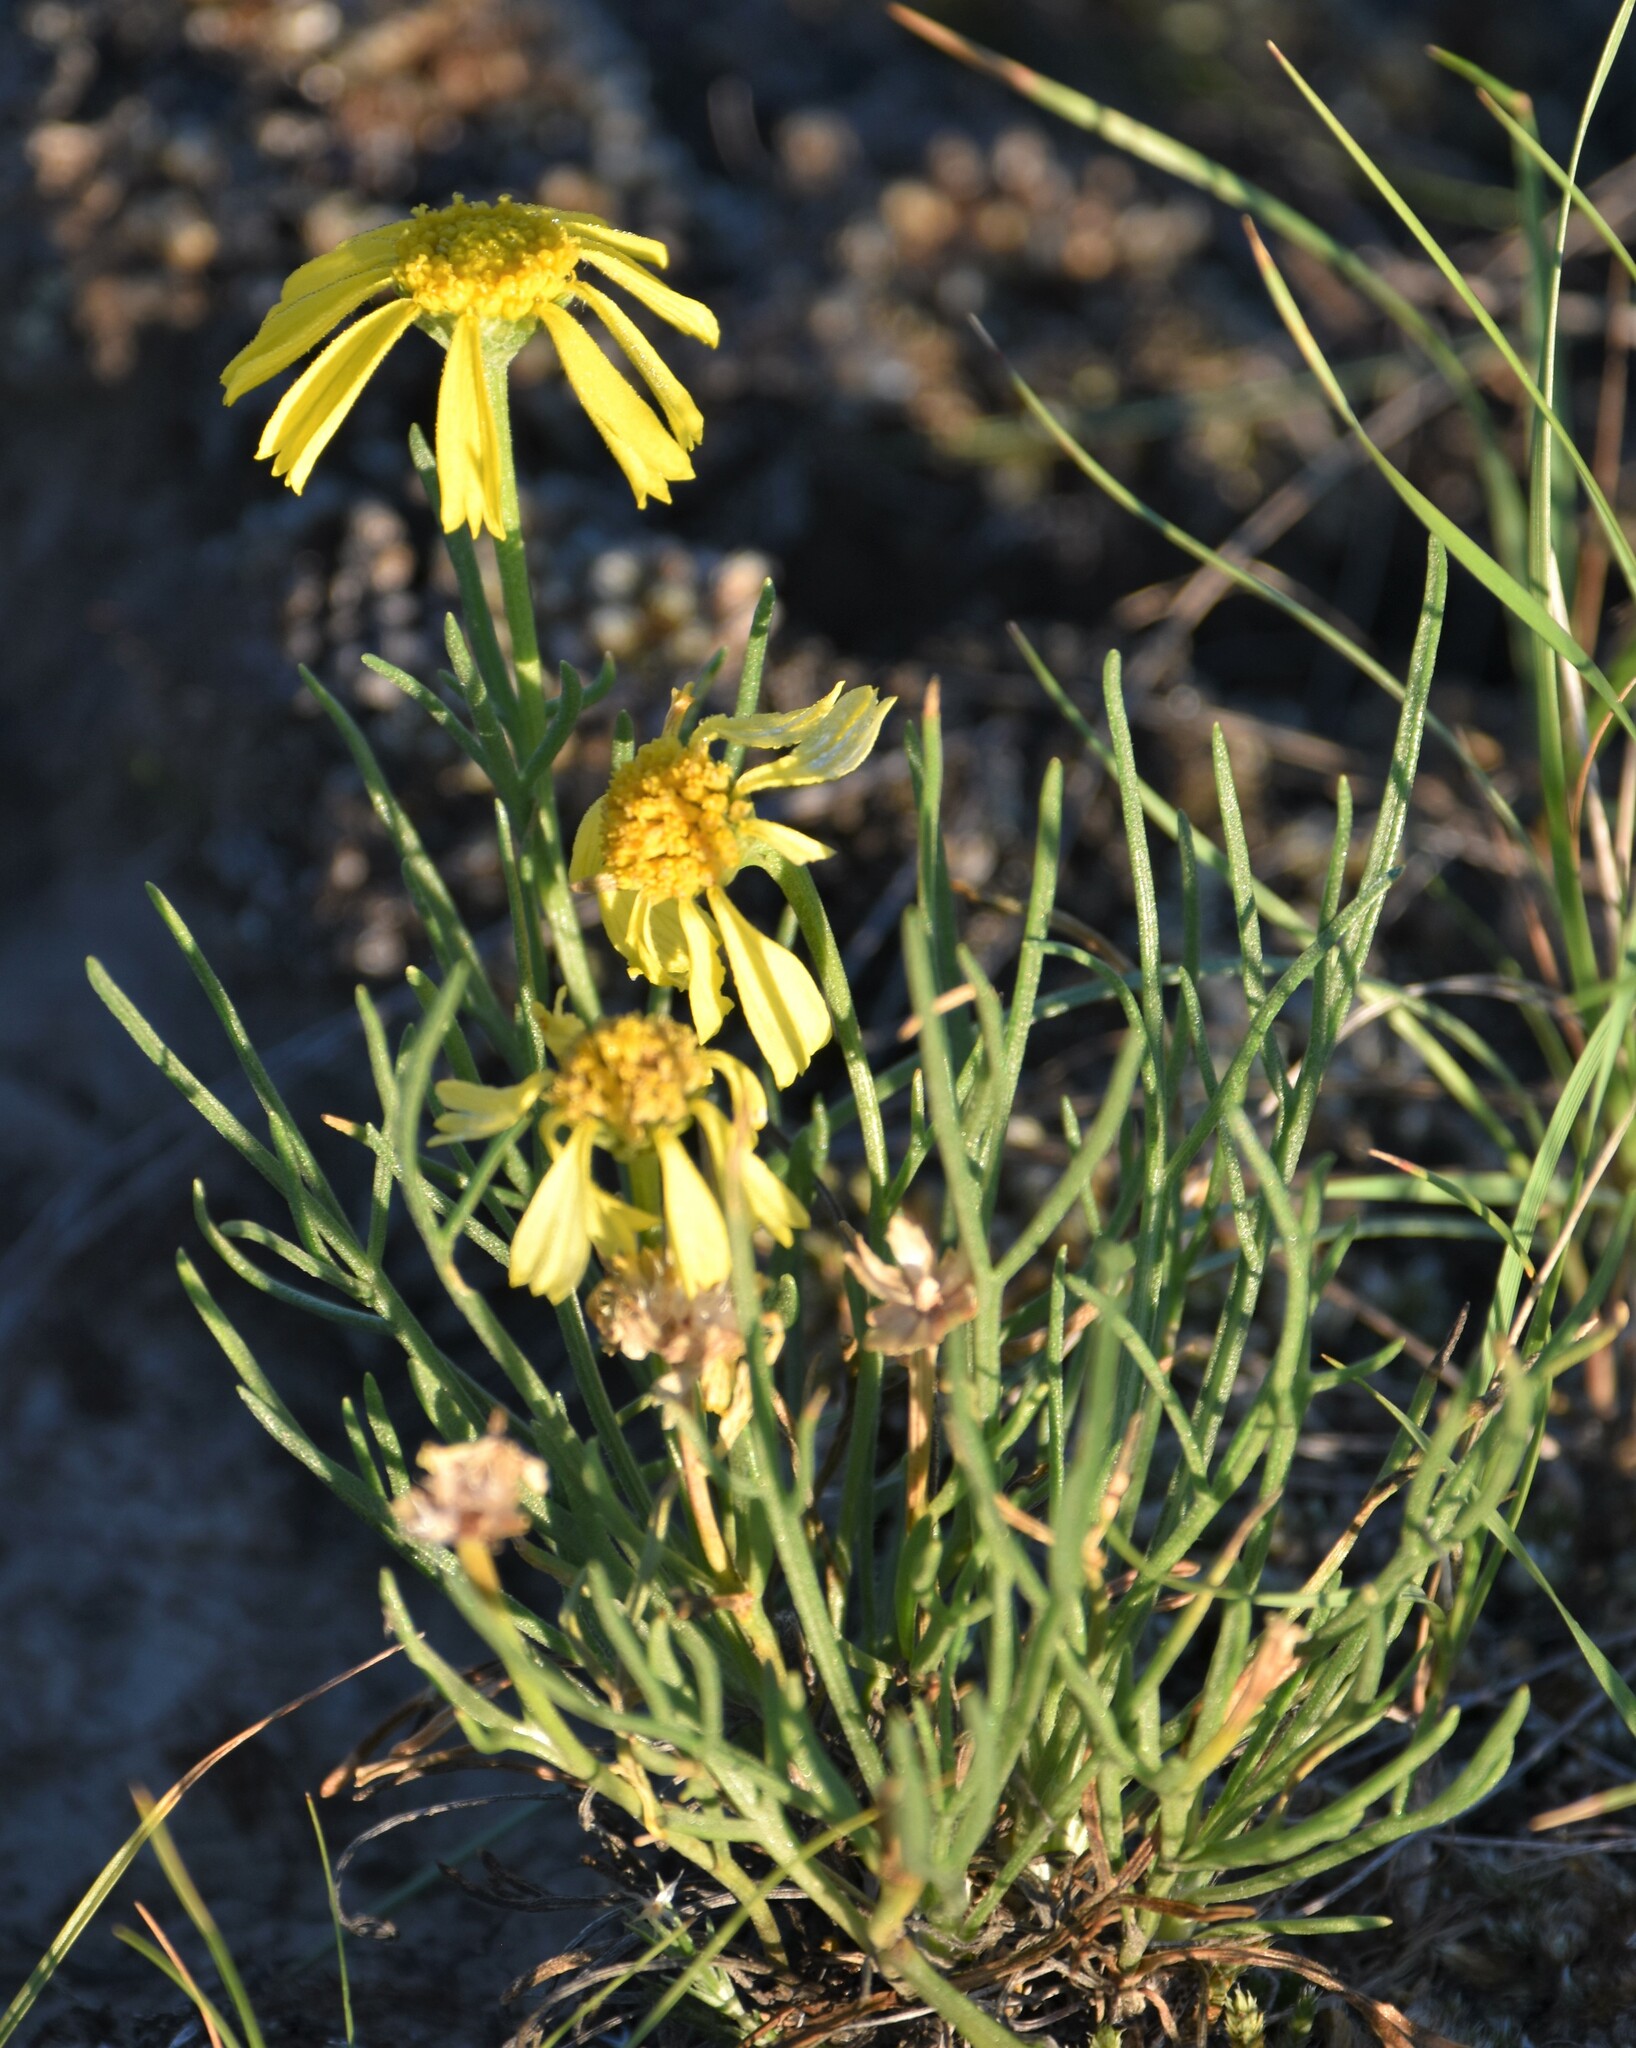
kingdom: Plantae
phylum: Tracheophyta
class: Magnoliopsida
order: Asterales
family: Asteraceae
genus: Hymenoxys
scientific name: Hymenoxys richardsonii
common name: Pingue rubberweed
